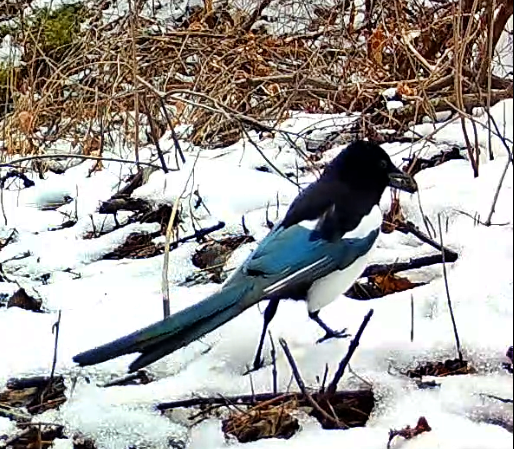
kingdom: Animalia
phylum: Chordata
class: Aves
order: Passeriformes
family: Corvidae
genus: Pica
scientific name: Pica hudsonia
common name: Black-billed magpie
